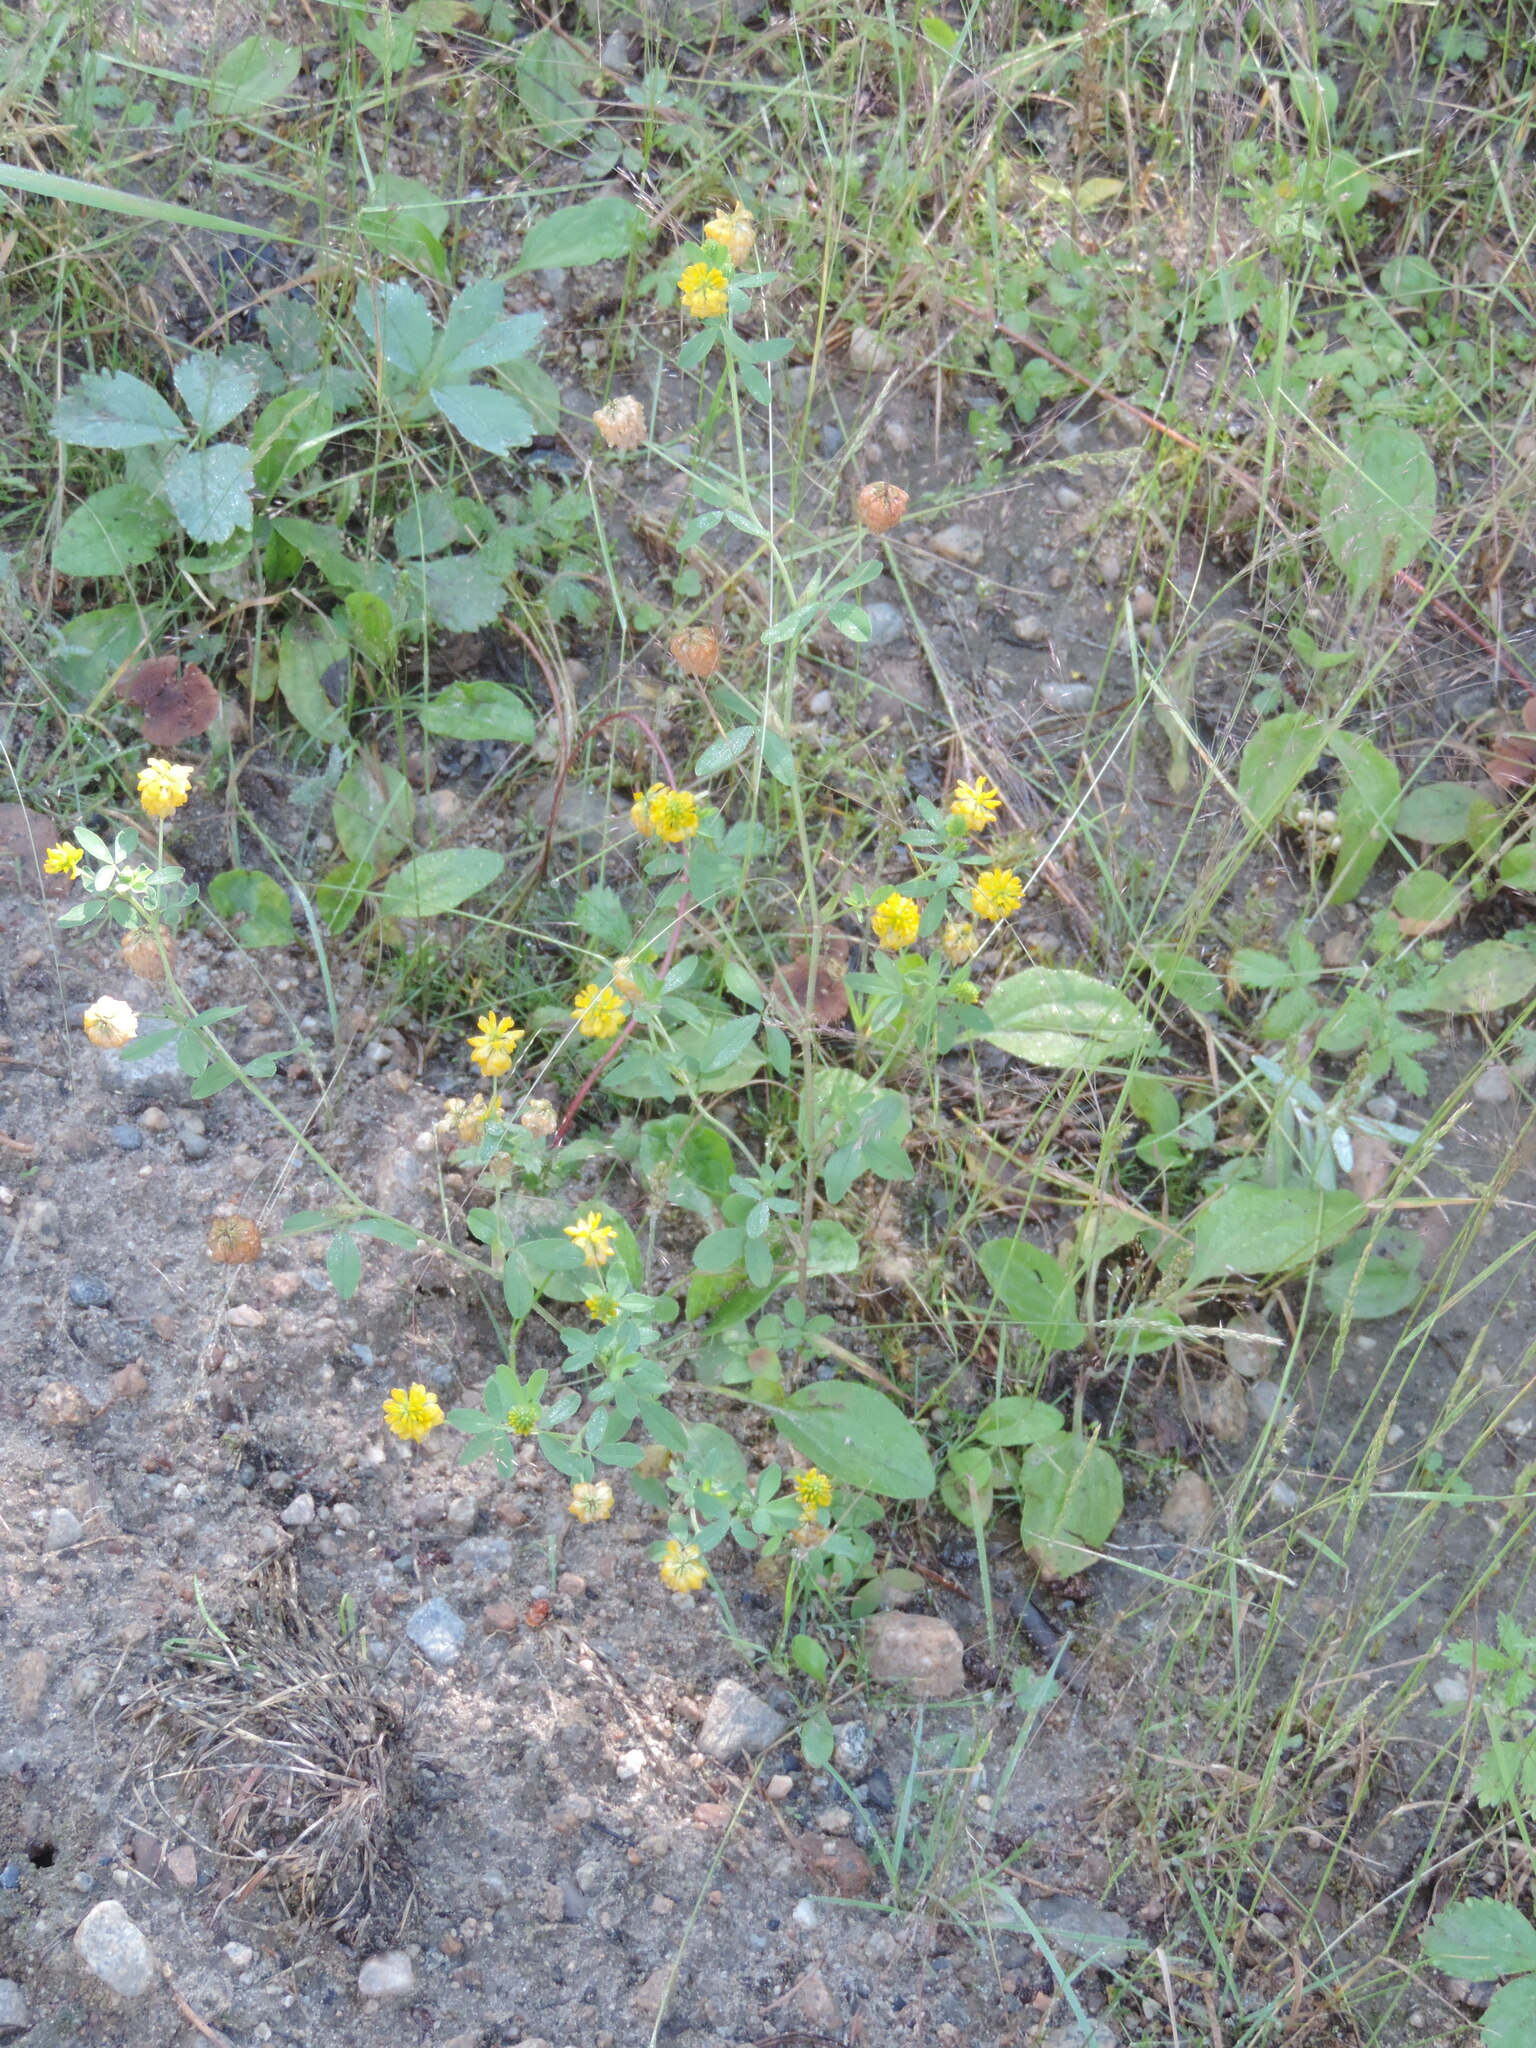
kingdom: Plantae
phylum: Tracheophyta
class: Magnoliopsida
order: Fabales
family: Fabaceae
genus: Trifolium
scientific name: Trifolium aureum
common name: Golden clover
